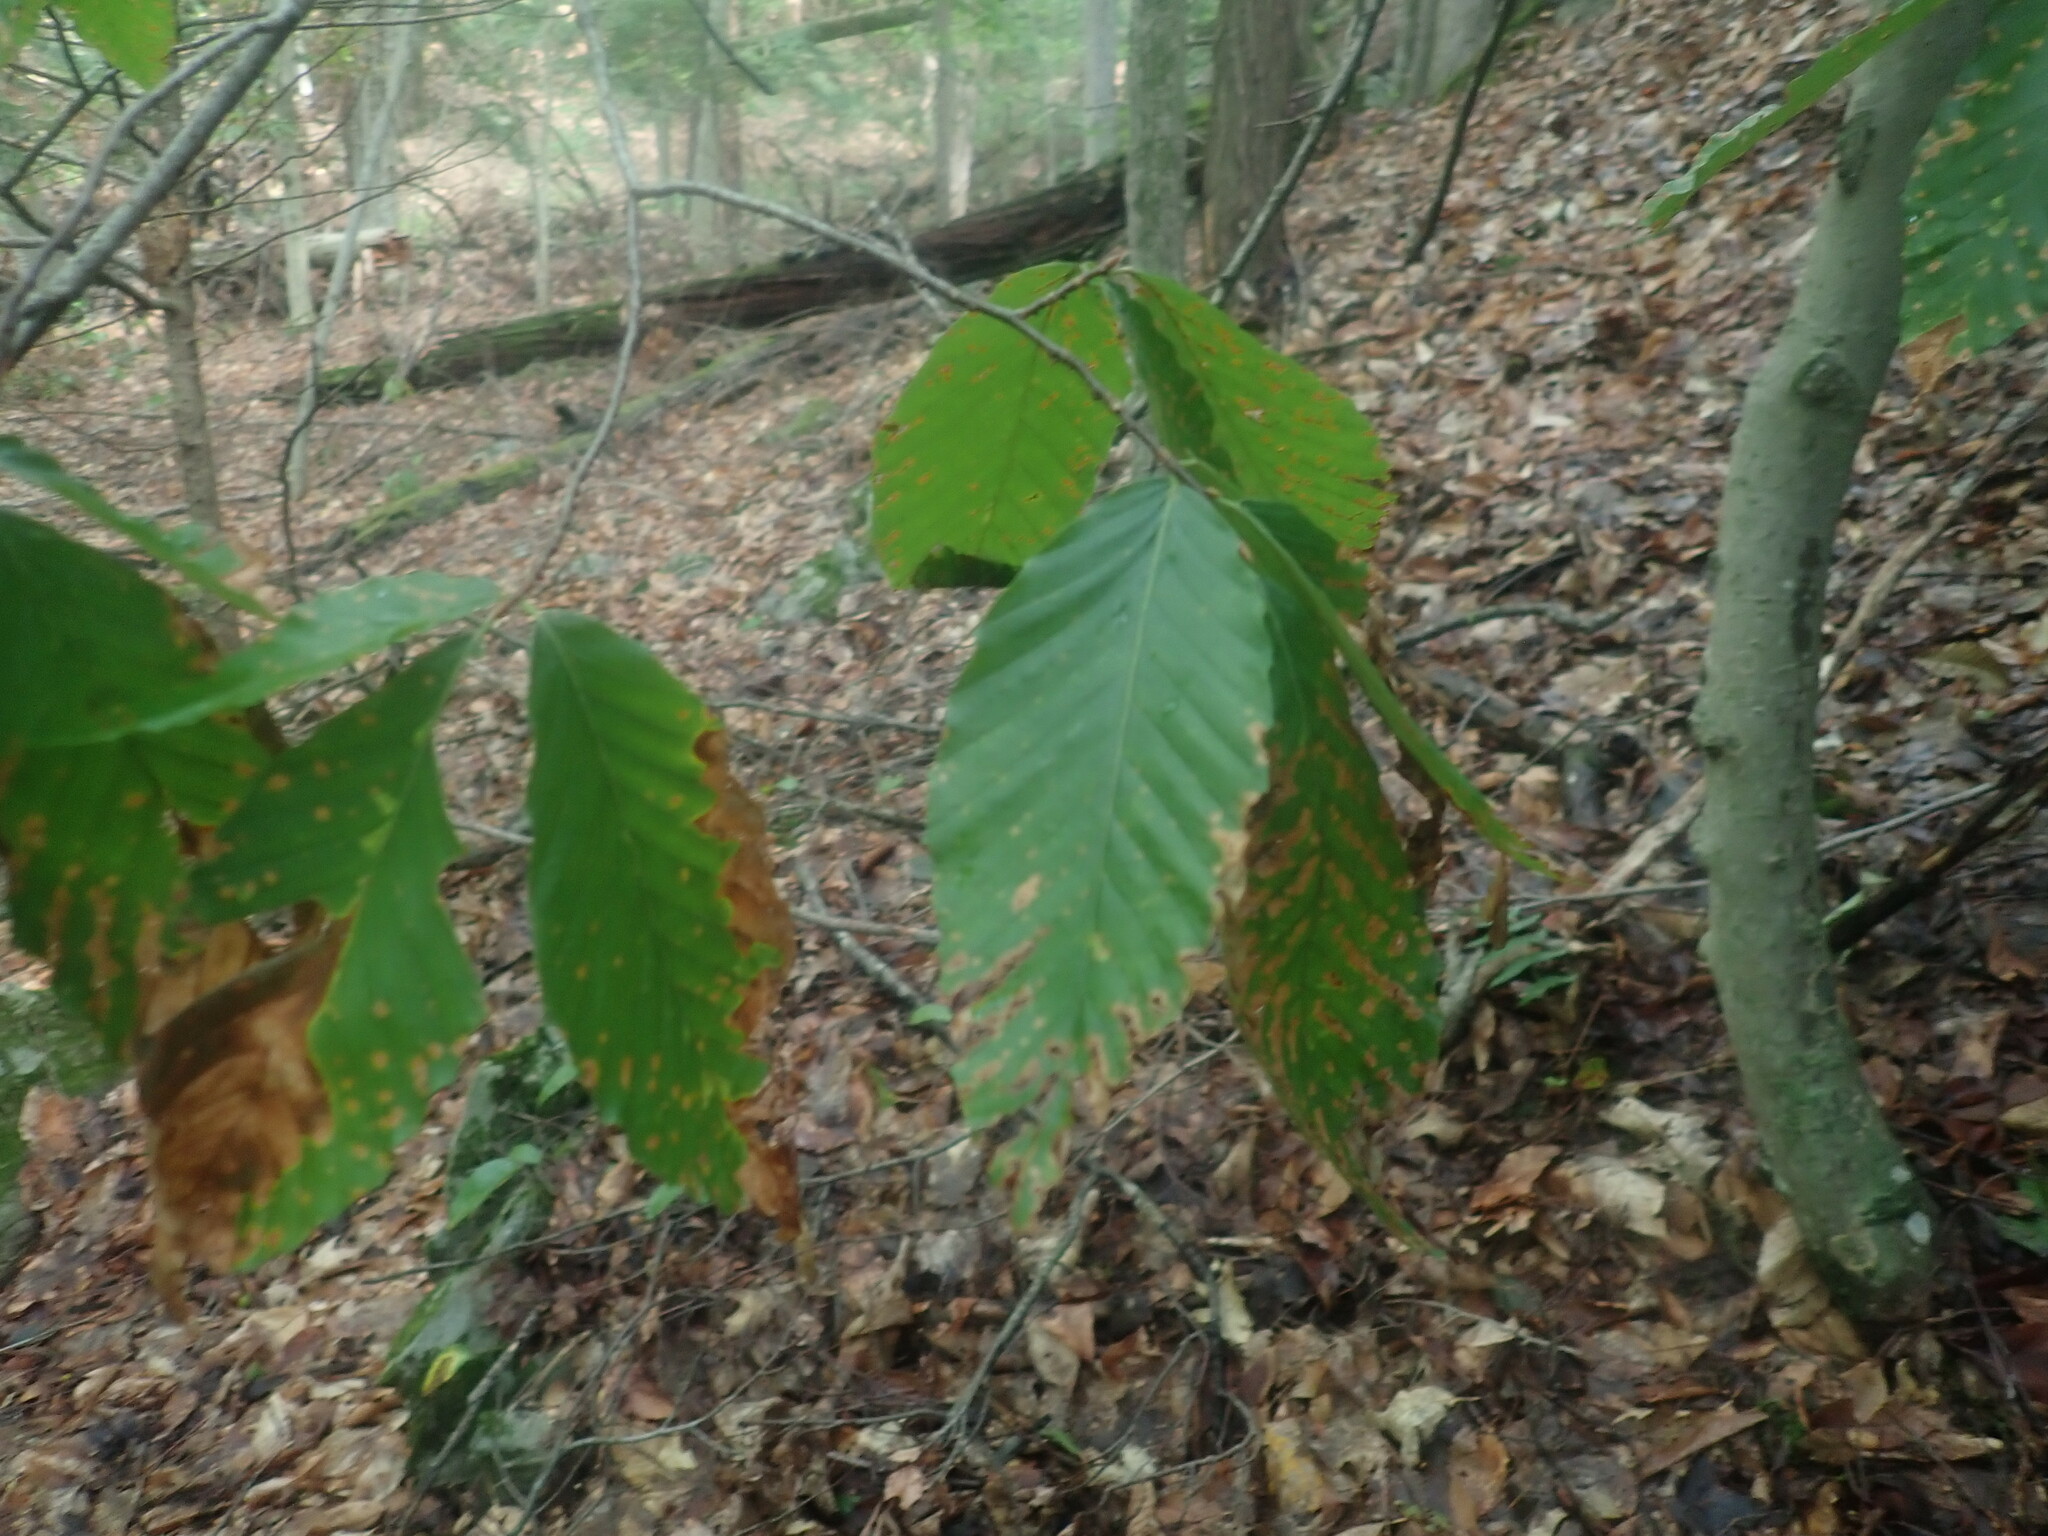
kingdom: Plantae
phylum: Tracheophyta
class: Magnoliopsida
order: Fagales
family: Fagaceae
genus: Fagus
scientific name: Fagus grandifolia
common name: American beech
